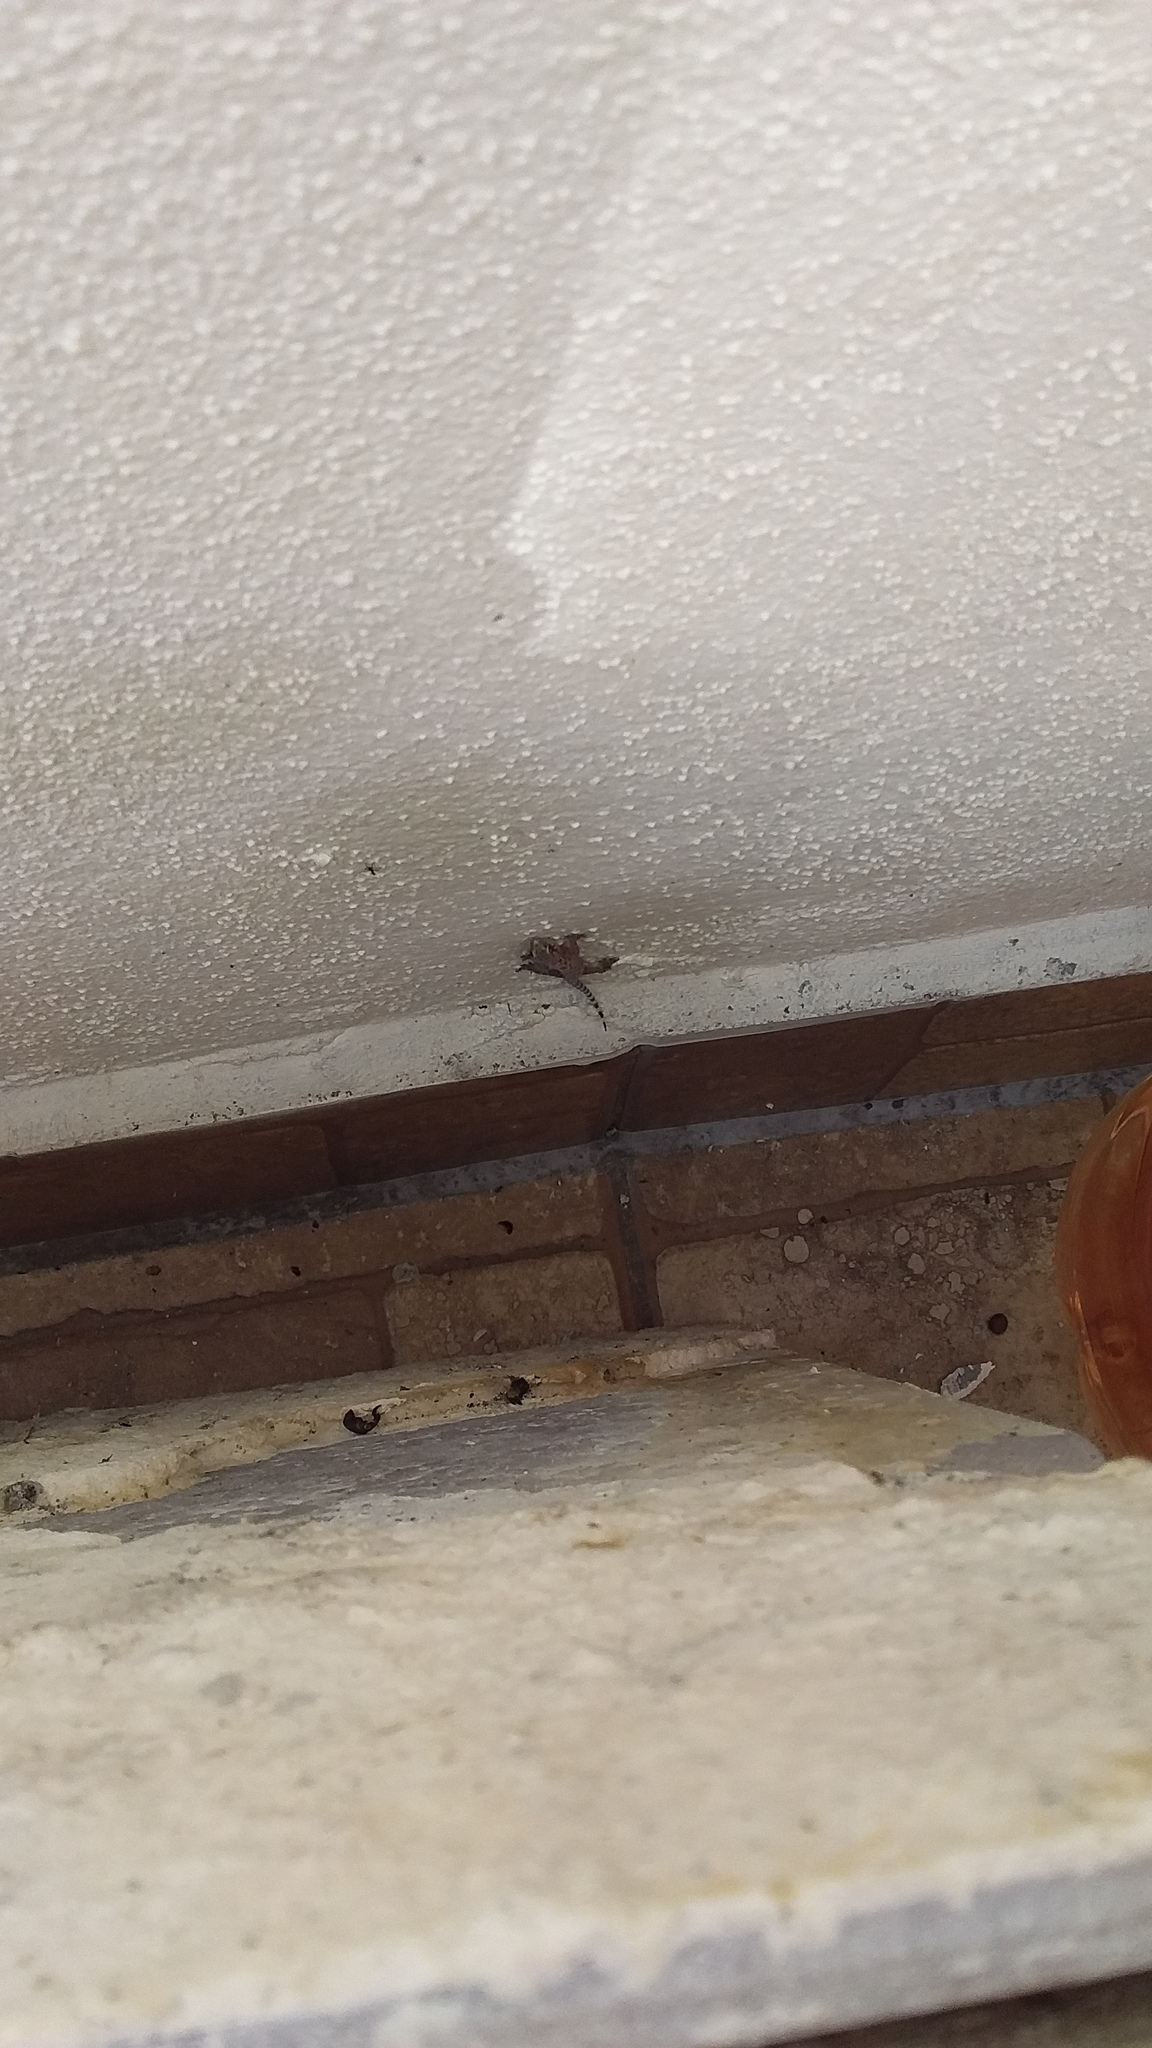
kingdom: Animalia
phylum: Chordata
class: Squamata
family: Gekkonidae
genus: Hemidactylus
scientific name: Hemidactylus turcicus
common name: Turkish gecko
